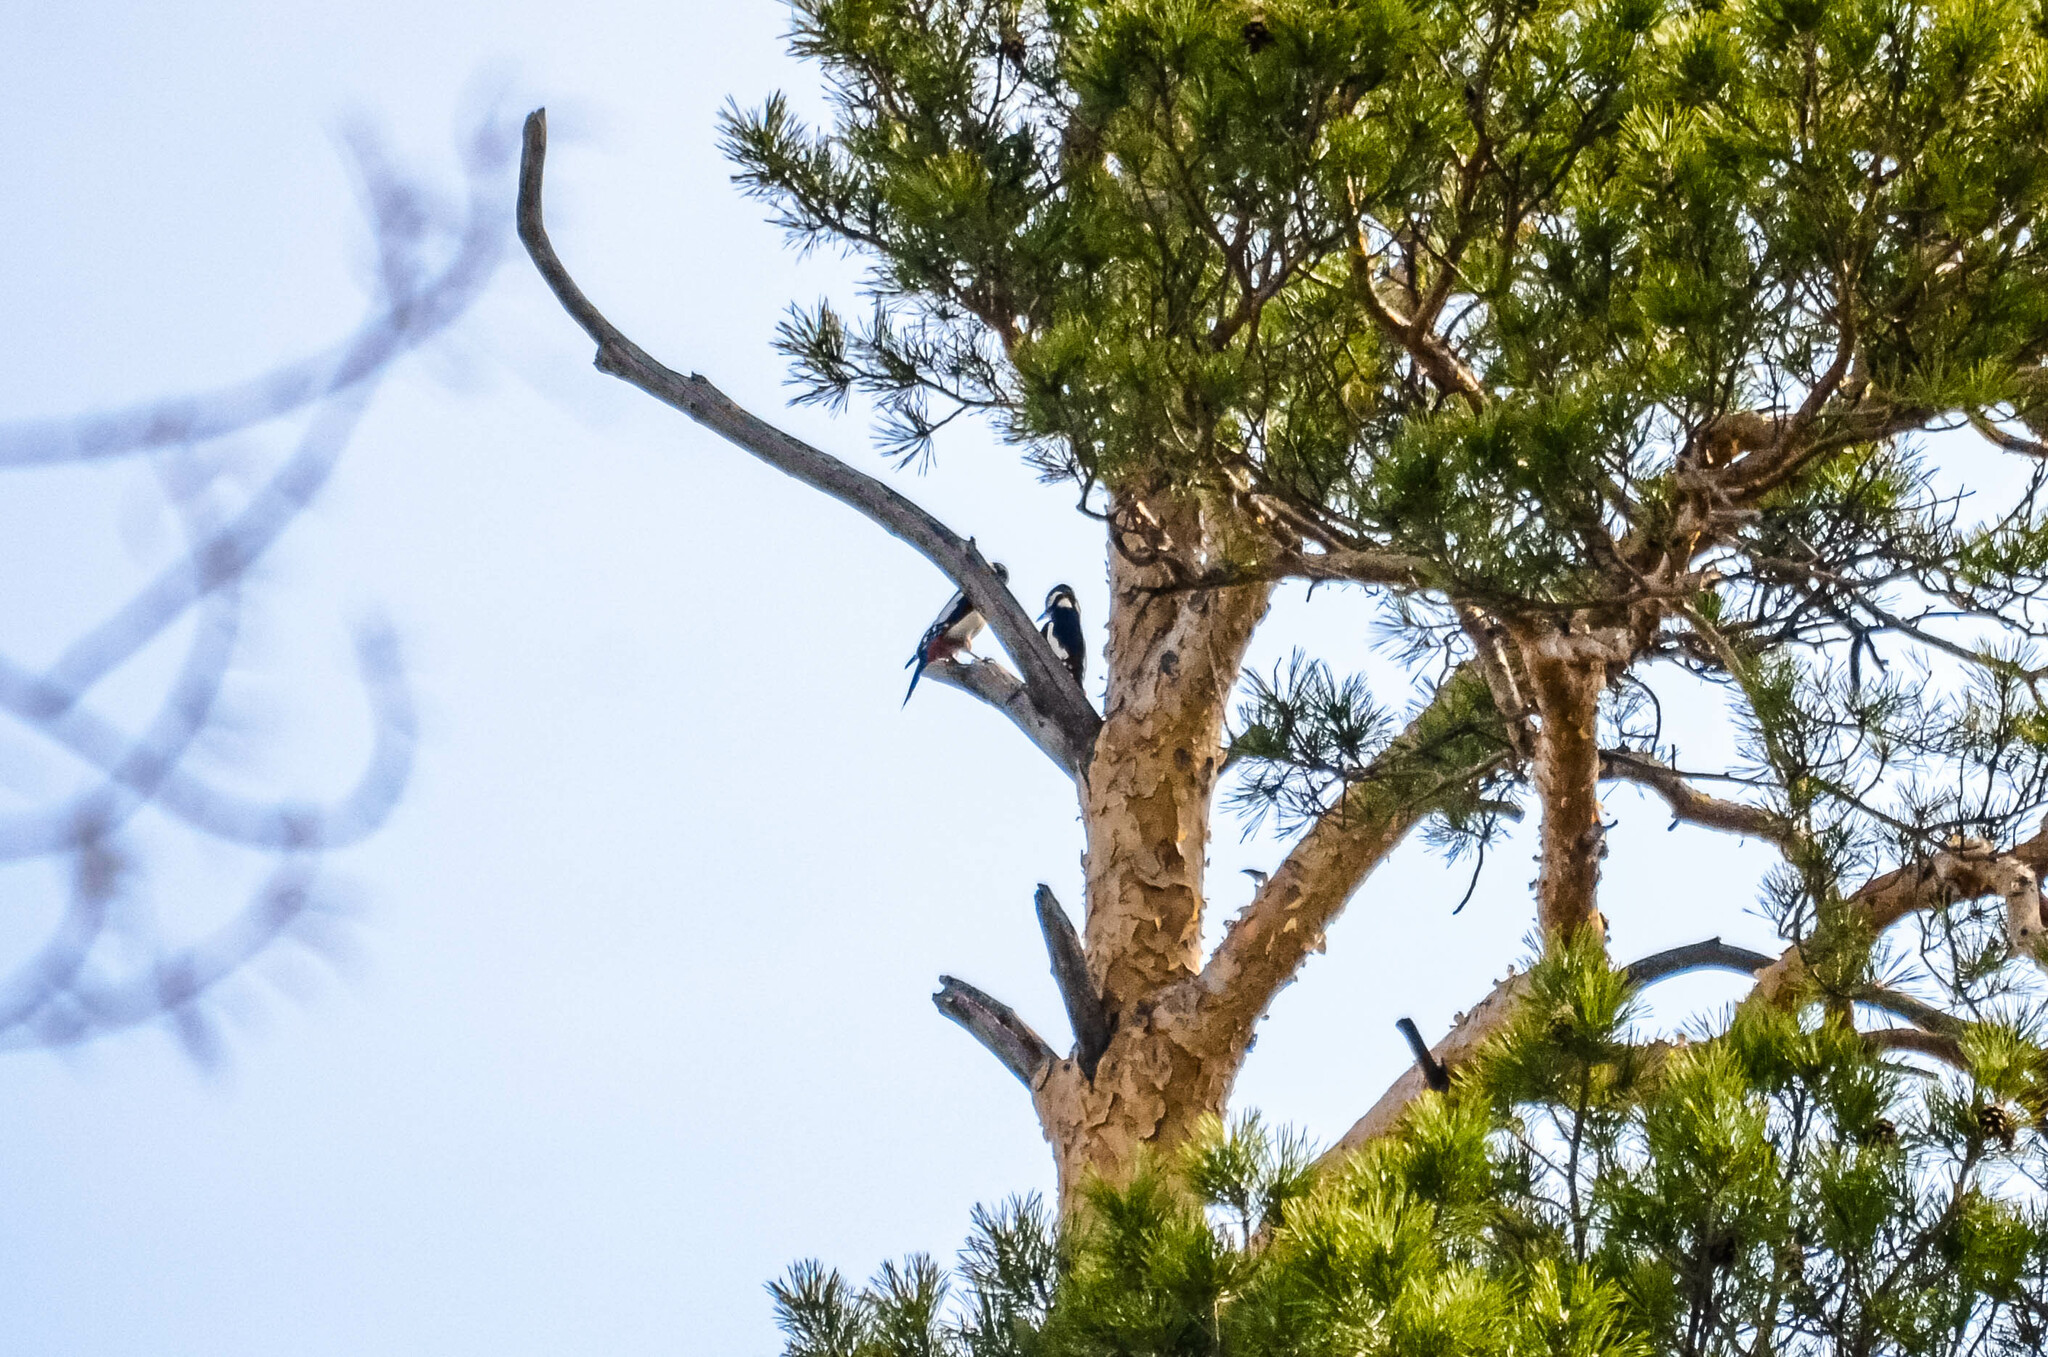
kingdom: Animalia
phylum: Chordata
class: Aves
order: Piciformes
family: Picidae
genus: Dendrocopos
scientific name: Dendrocopos major
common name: Great spotted woodpecker
